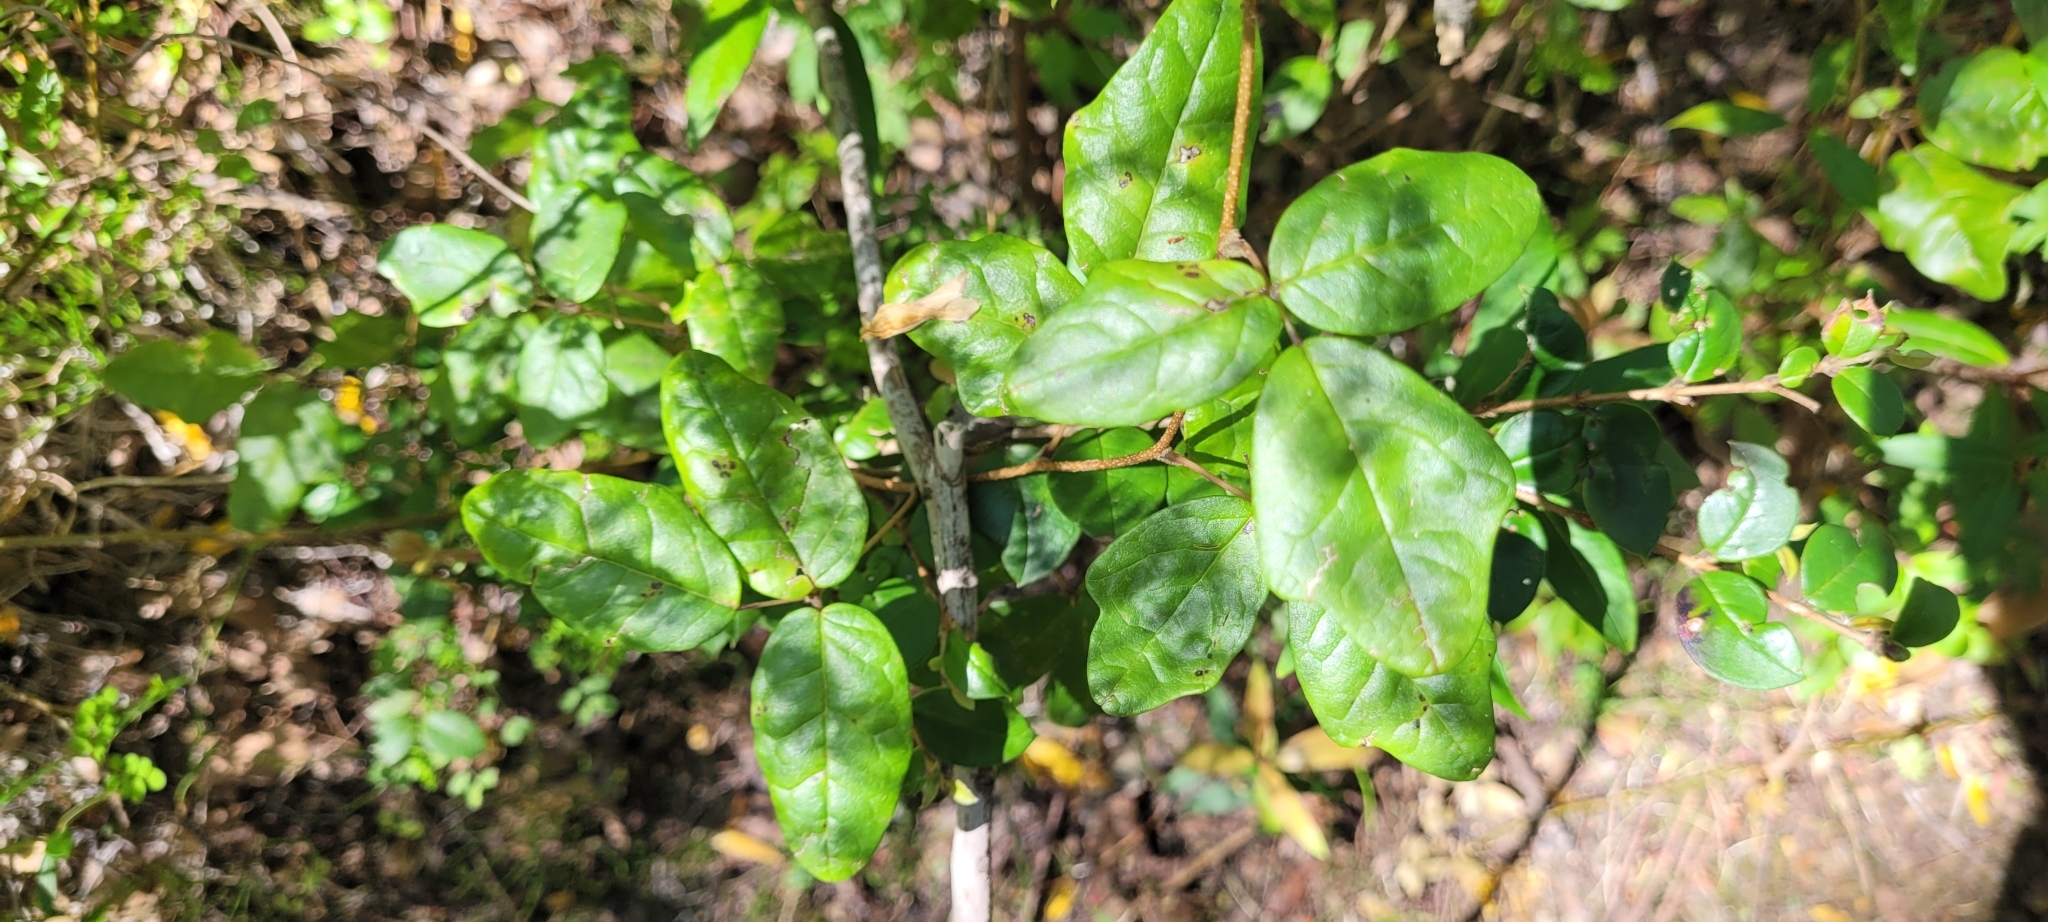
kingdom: Plantae
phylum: Tracheophyta
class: Magnoliopsida
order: Ranunculales
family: Lardizabalaceae
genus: Boquila
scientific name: Boquila trifoliolata
